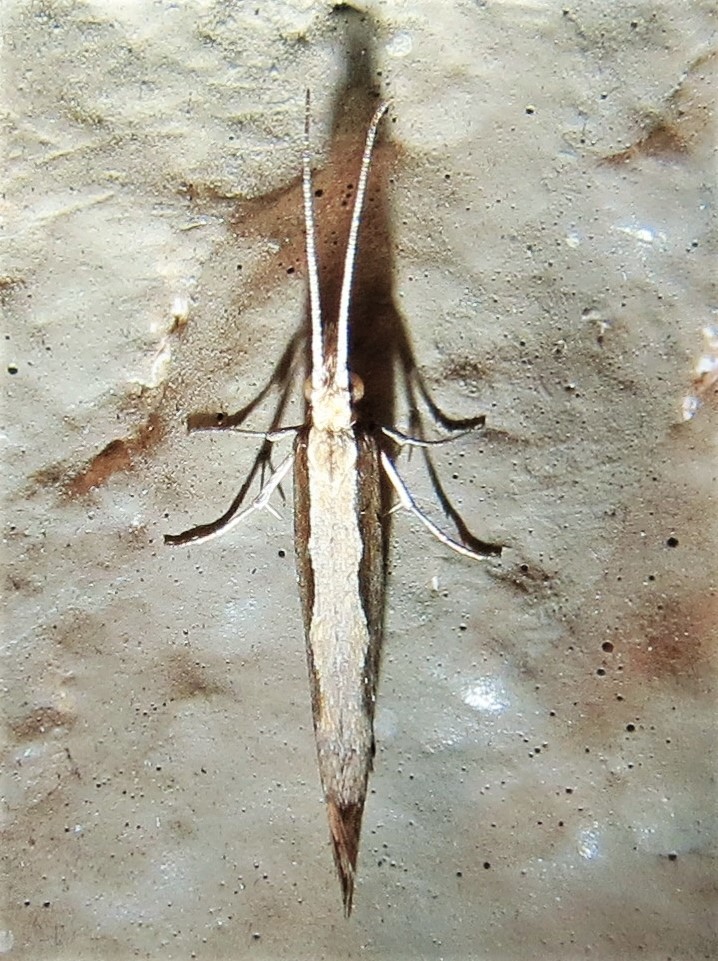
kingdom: Animalia
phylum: Arthropoda
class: Insecta
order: Lepidoptera
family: Plutellidae
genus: Plutella
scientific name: Plutella xylostella
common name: Diamond-back moth
